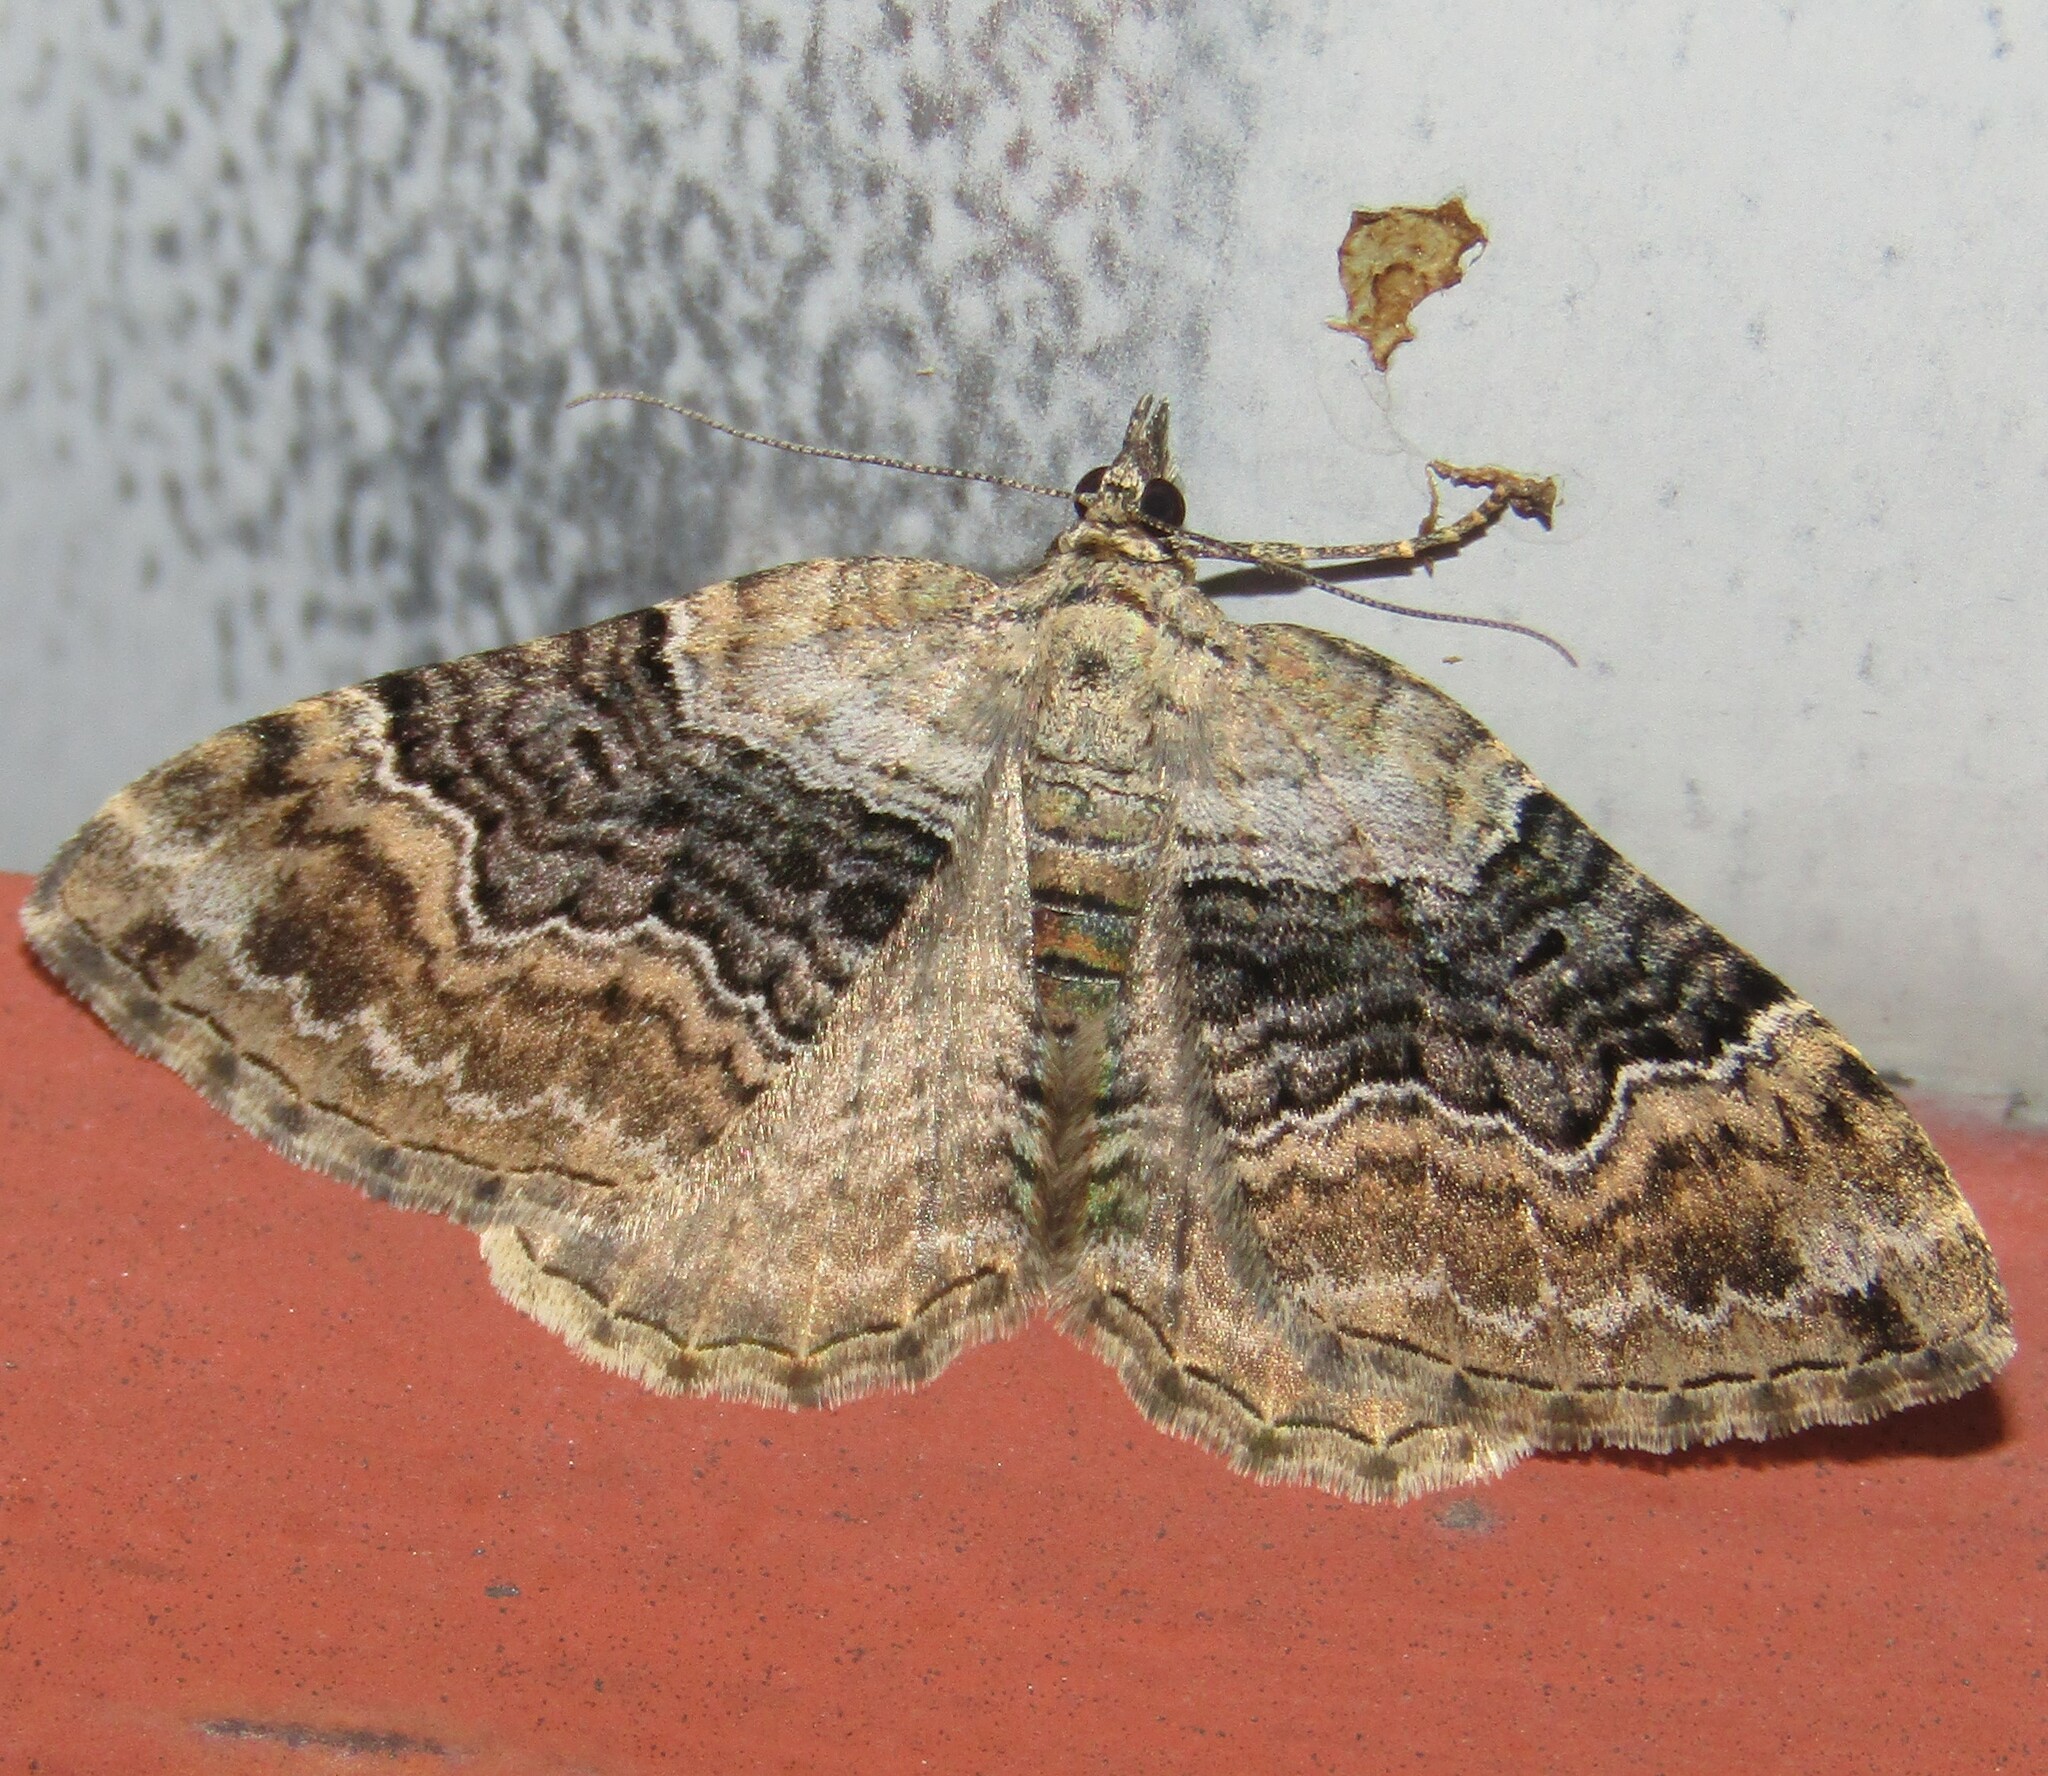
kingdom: Animalia
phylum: Arthropoda
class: Insecta
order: Lepidoptera
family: Geometridae
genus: Xanthorhoe
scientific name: Xanthorhoe quadrifasiata
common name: Large twin-spot carpet
